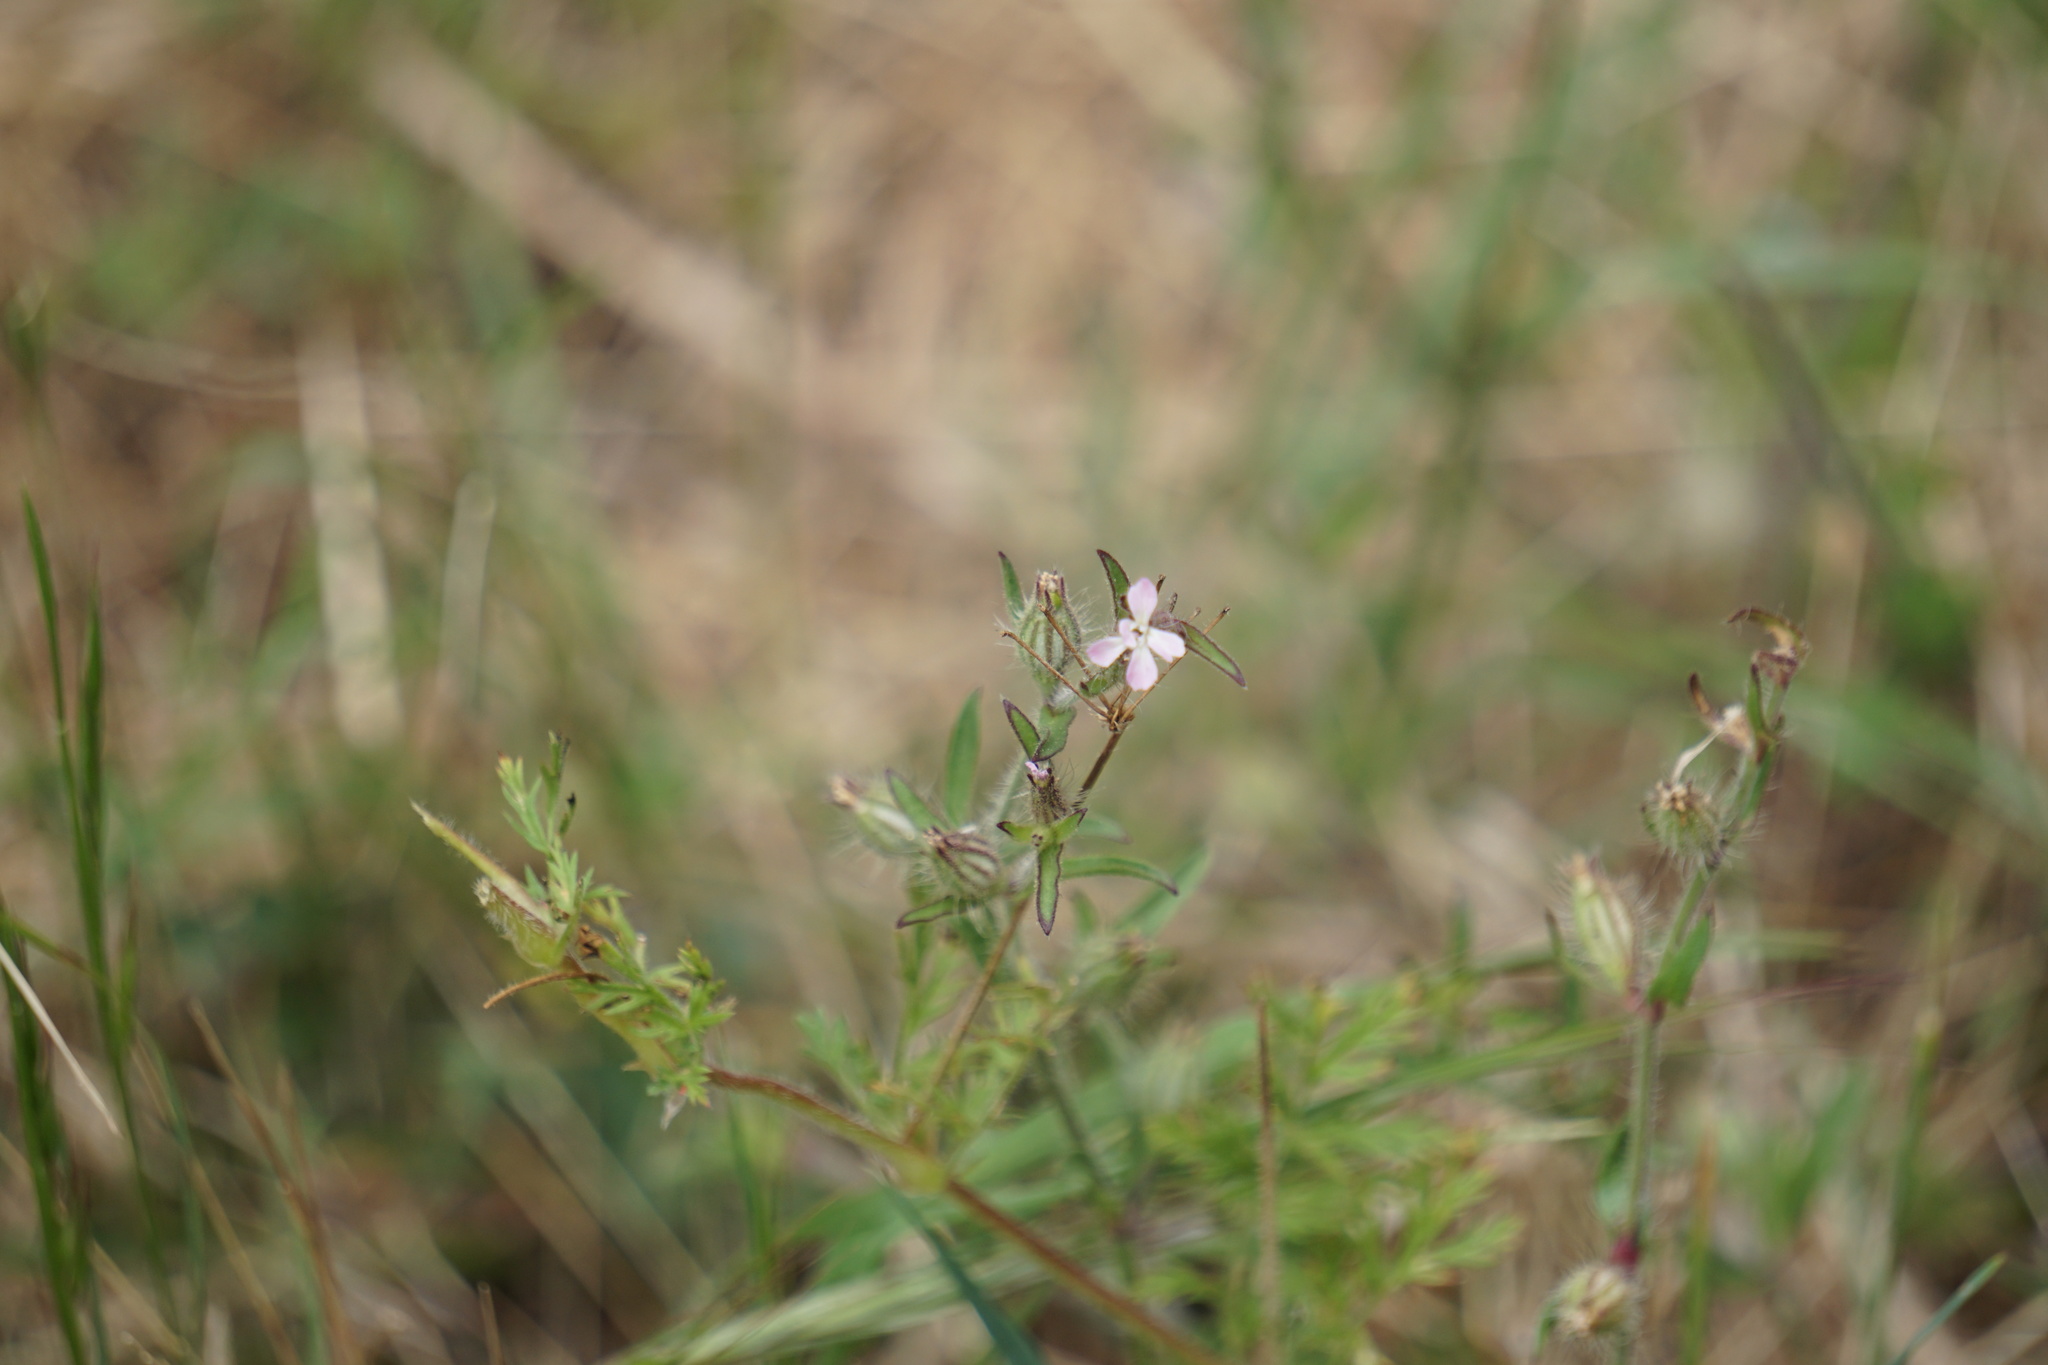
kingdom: Plantae
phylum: Tracheophyta
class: Magnoliopsida
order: Caryophyllales
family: Caryophyllaceae
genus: Silene
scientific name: Silene gallica
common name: Small-flowered catchfly
